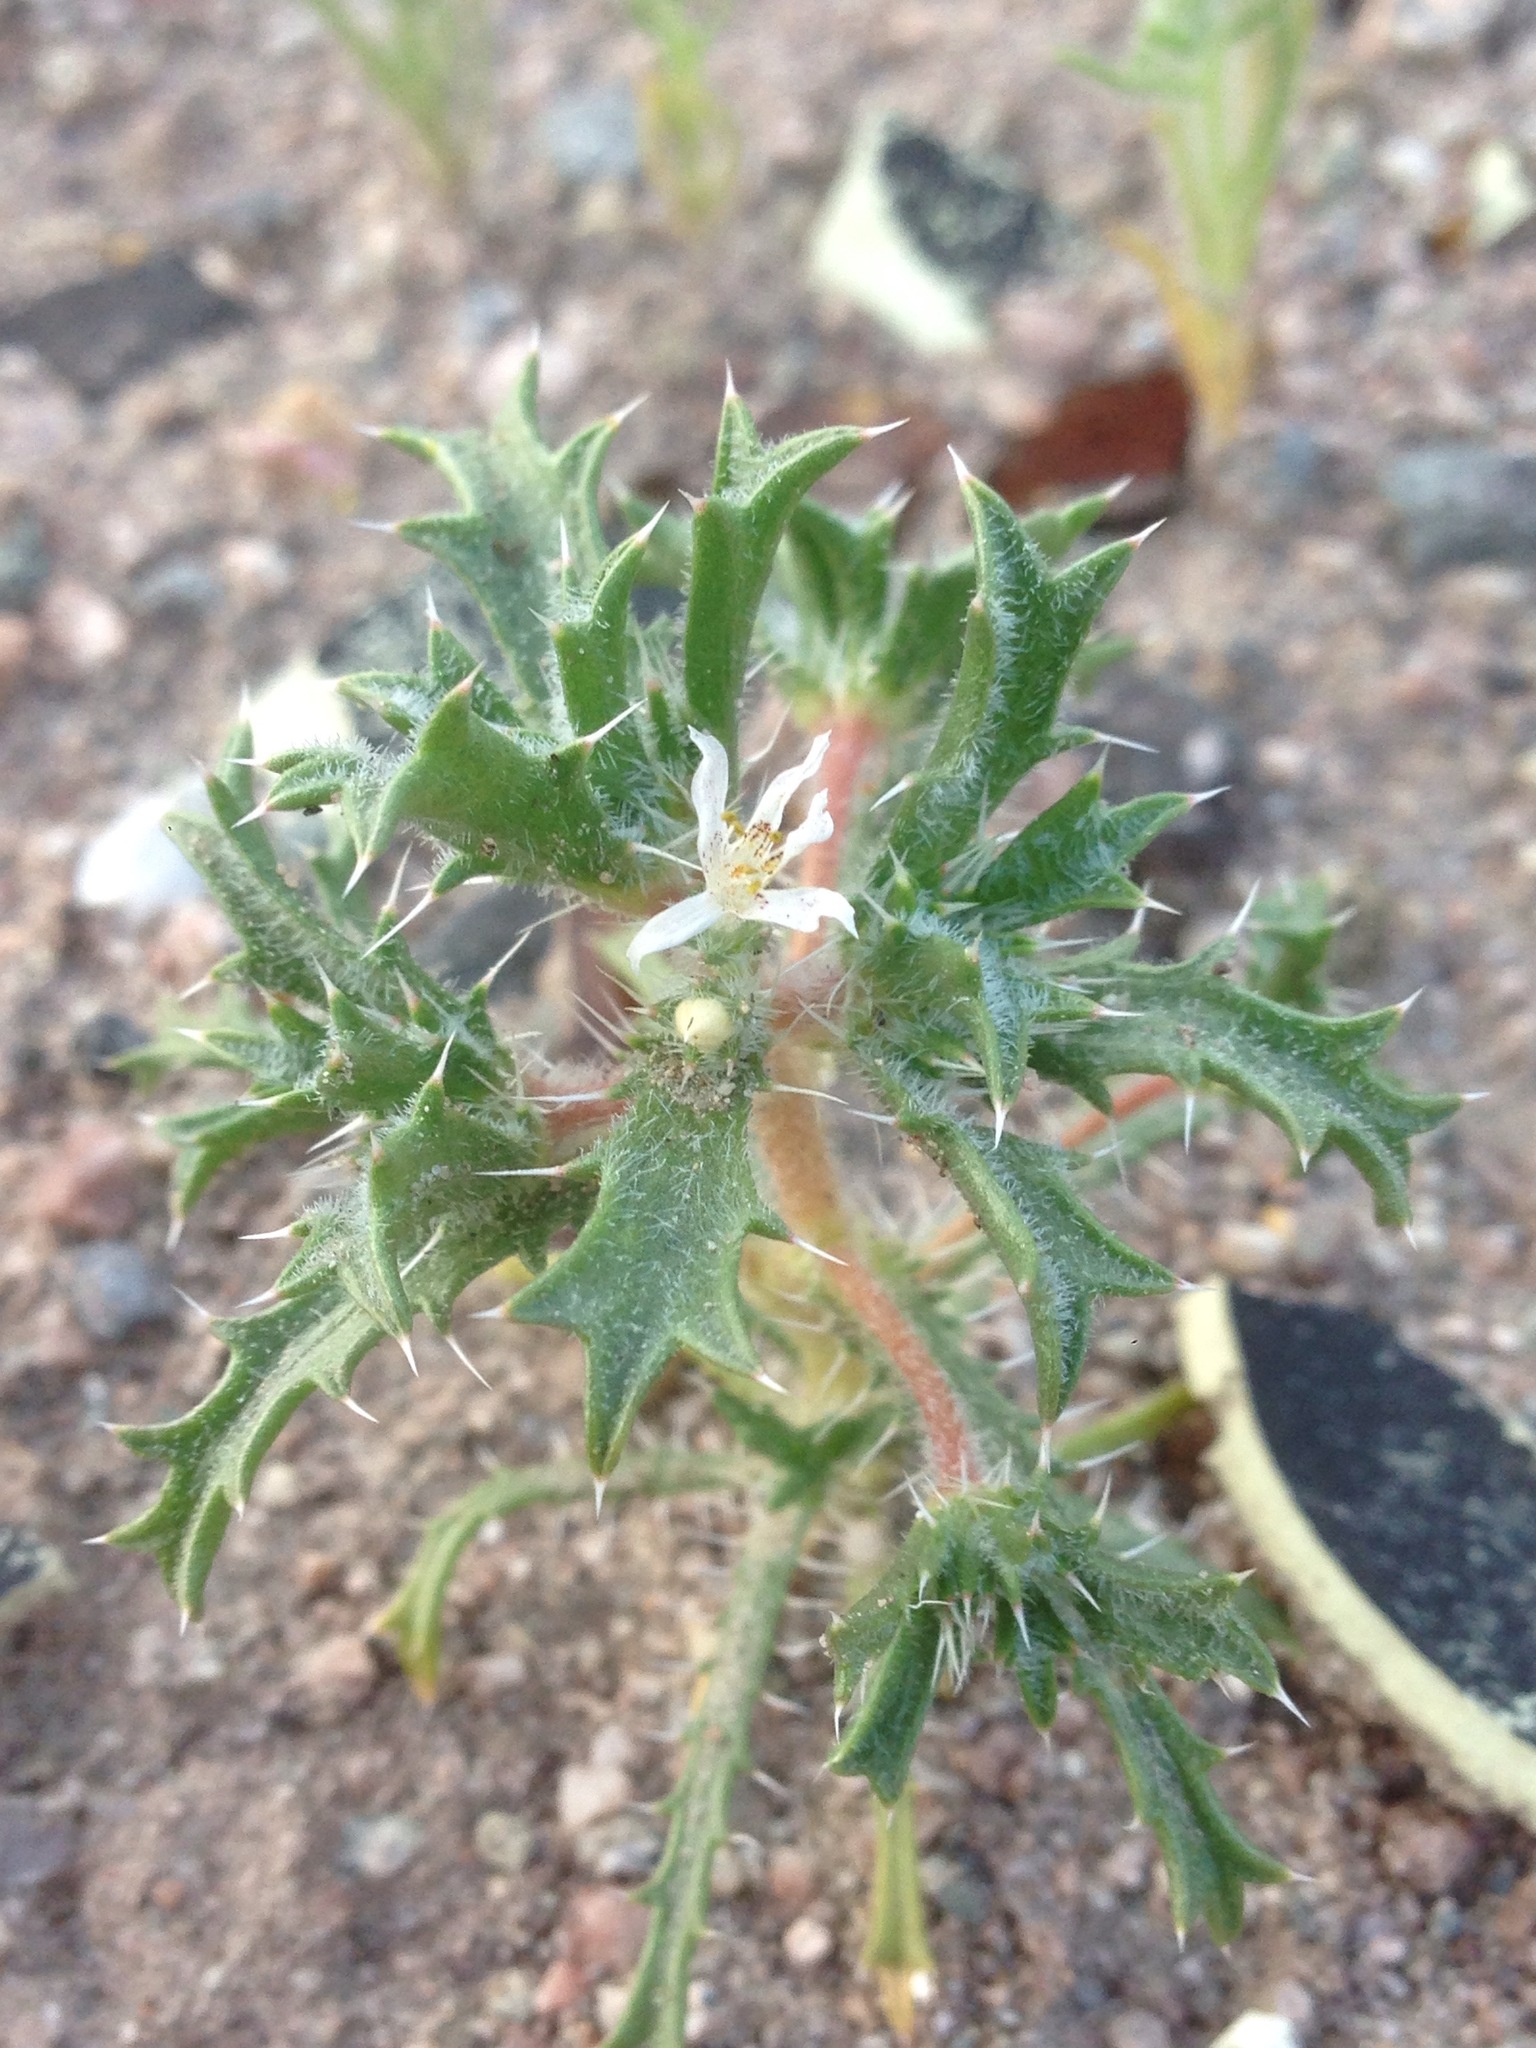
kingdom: Plantae
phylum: Tracheophyta
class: Magnoliopsida
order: Ericales
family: Polemoniaceae
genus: Loeseliastrum
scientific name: Loeseliastrum schottii
